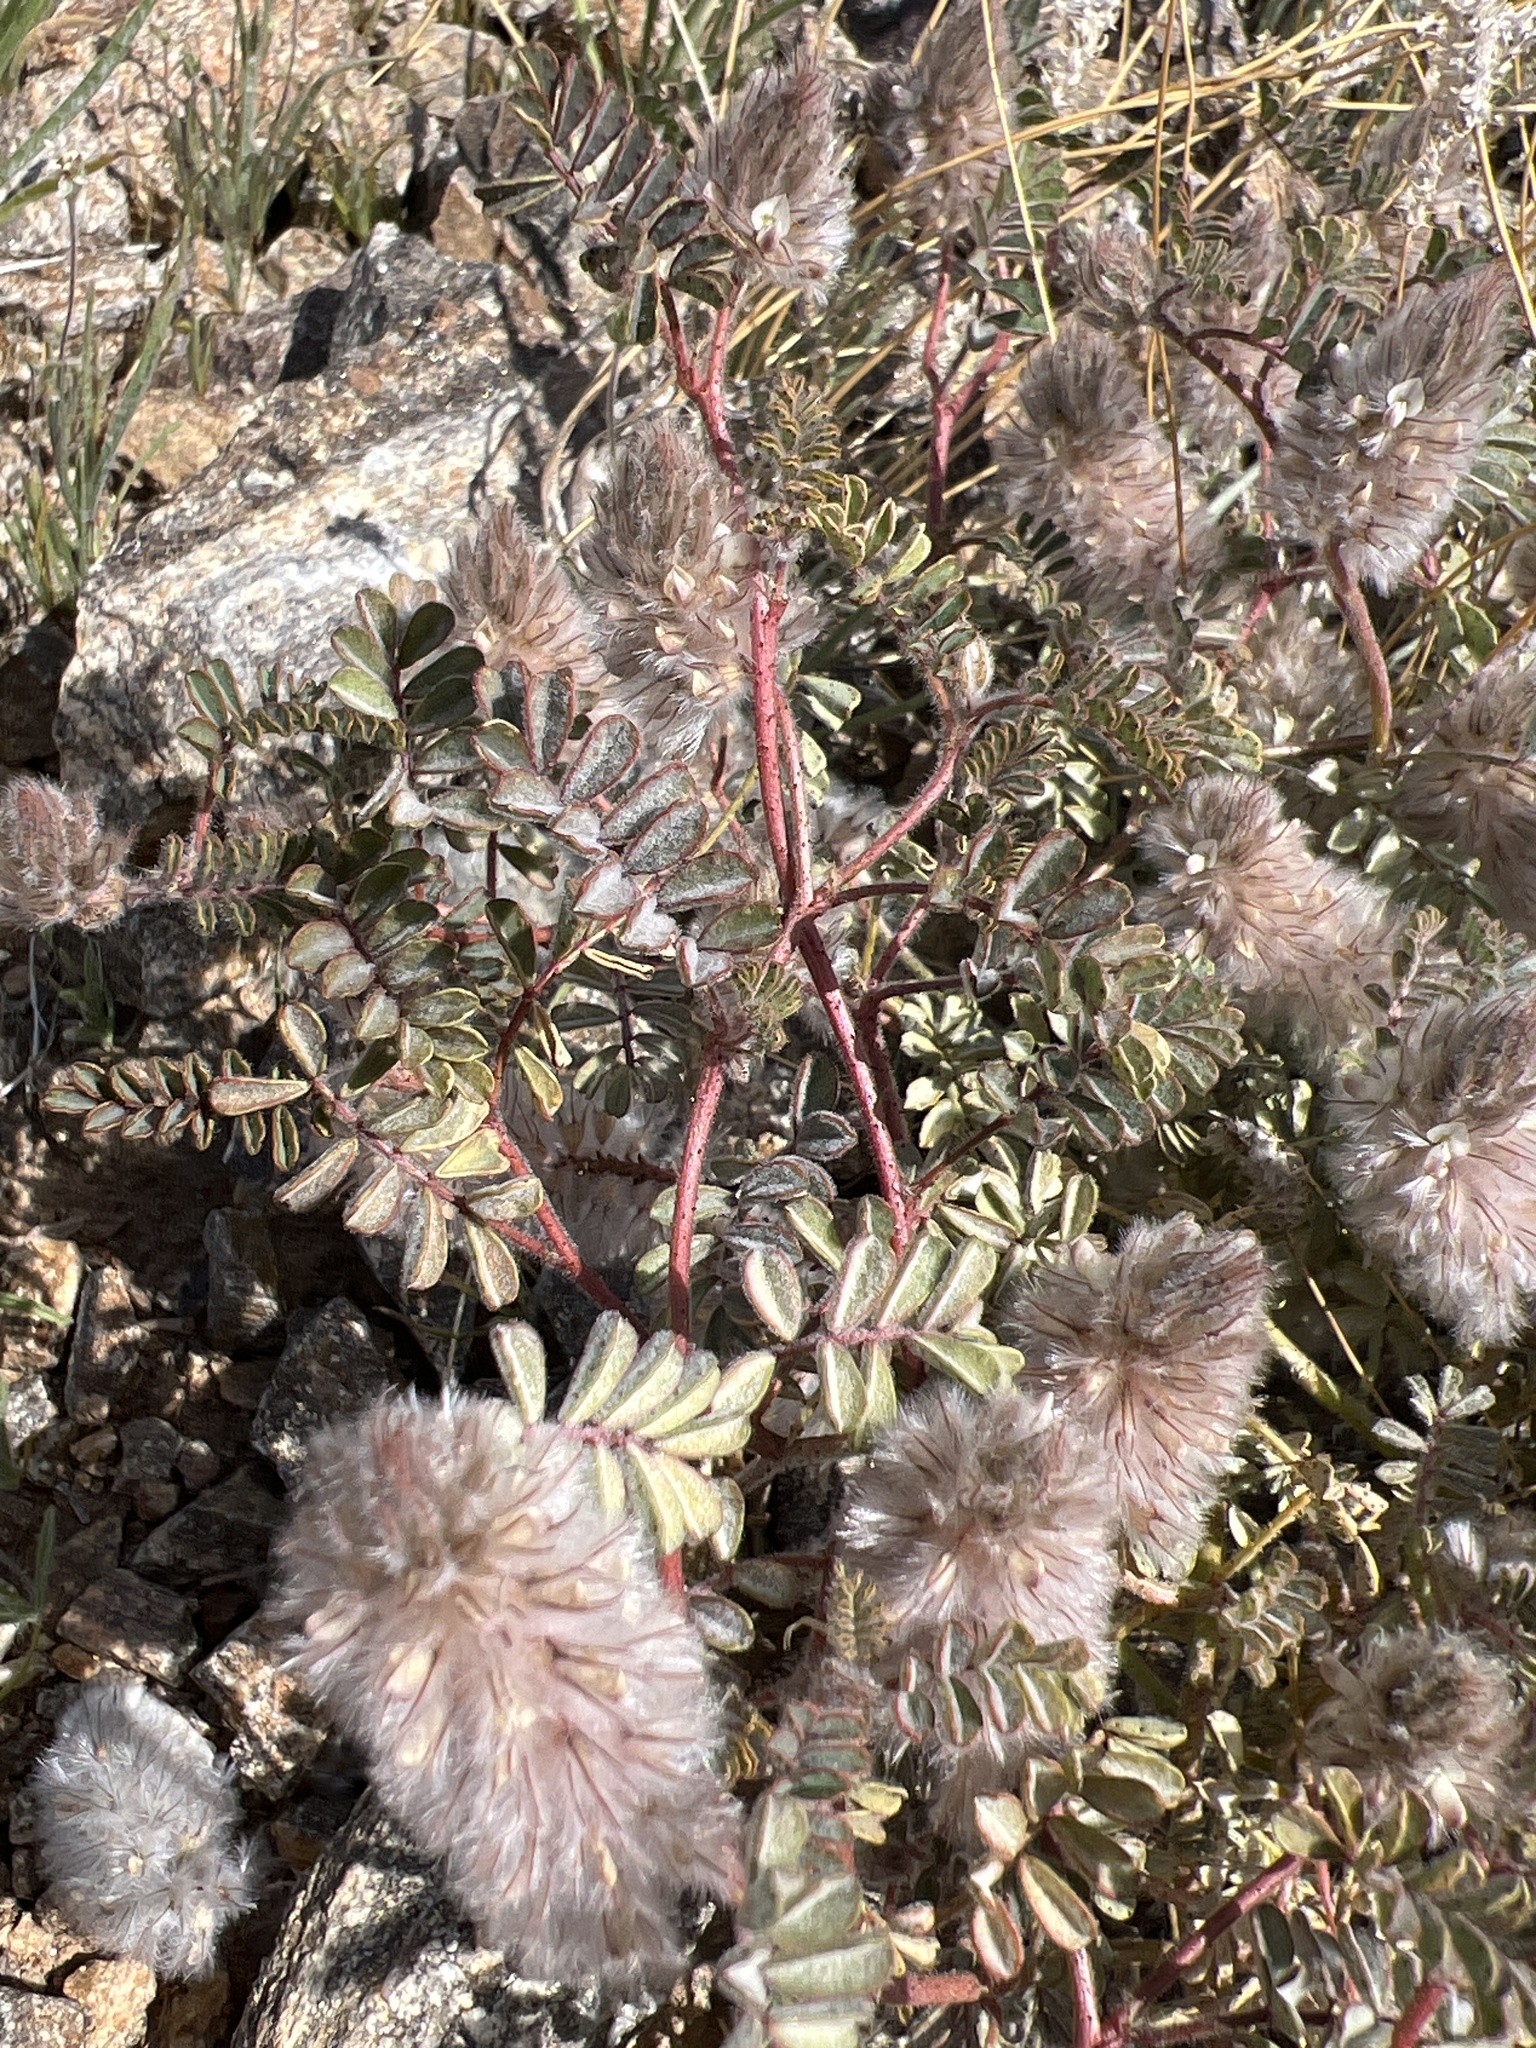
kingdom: Plantae
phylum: Tracheophyta
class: Magnoliopsida
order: Fabales
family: Fabaceae
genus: Dalea
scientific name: Dalea mollis
